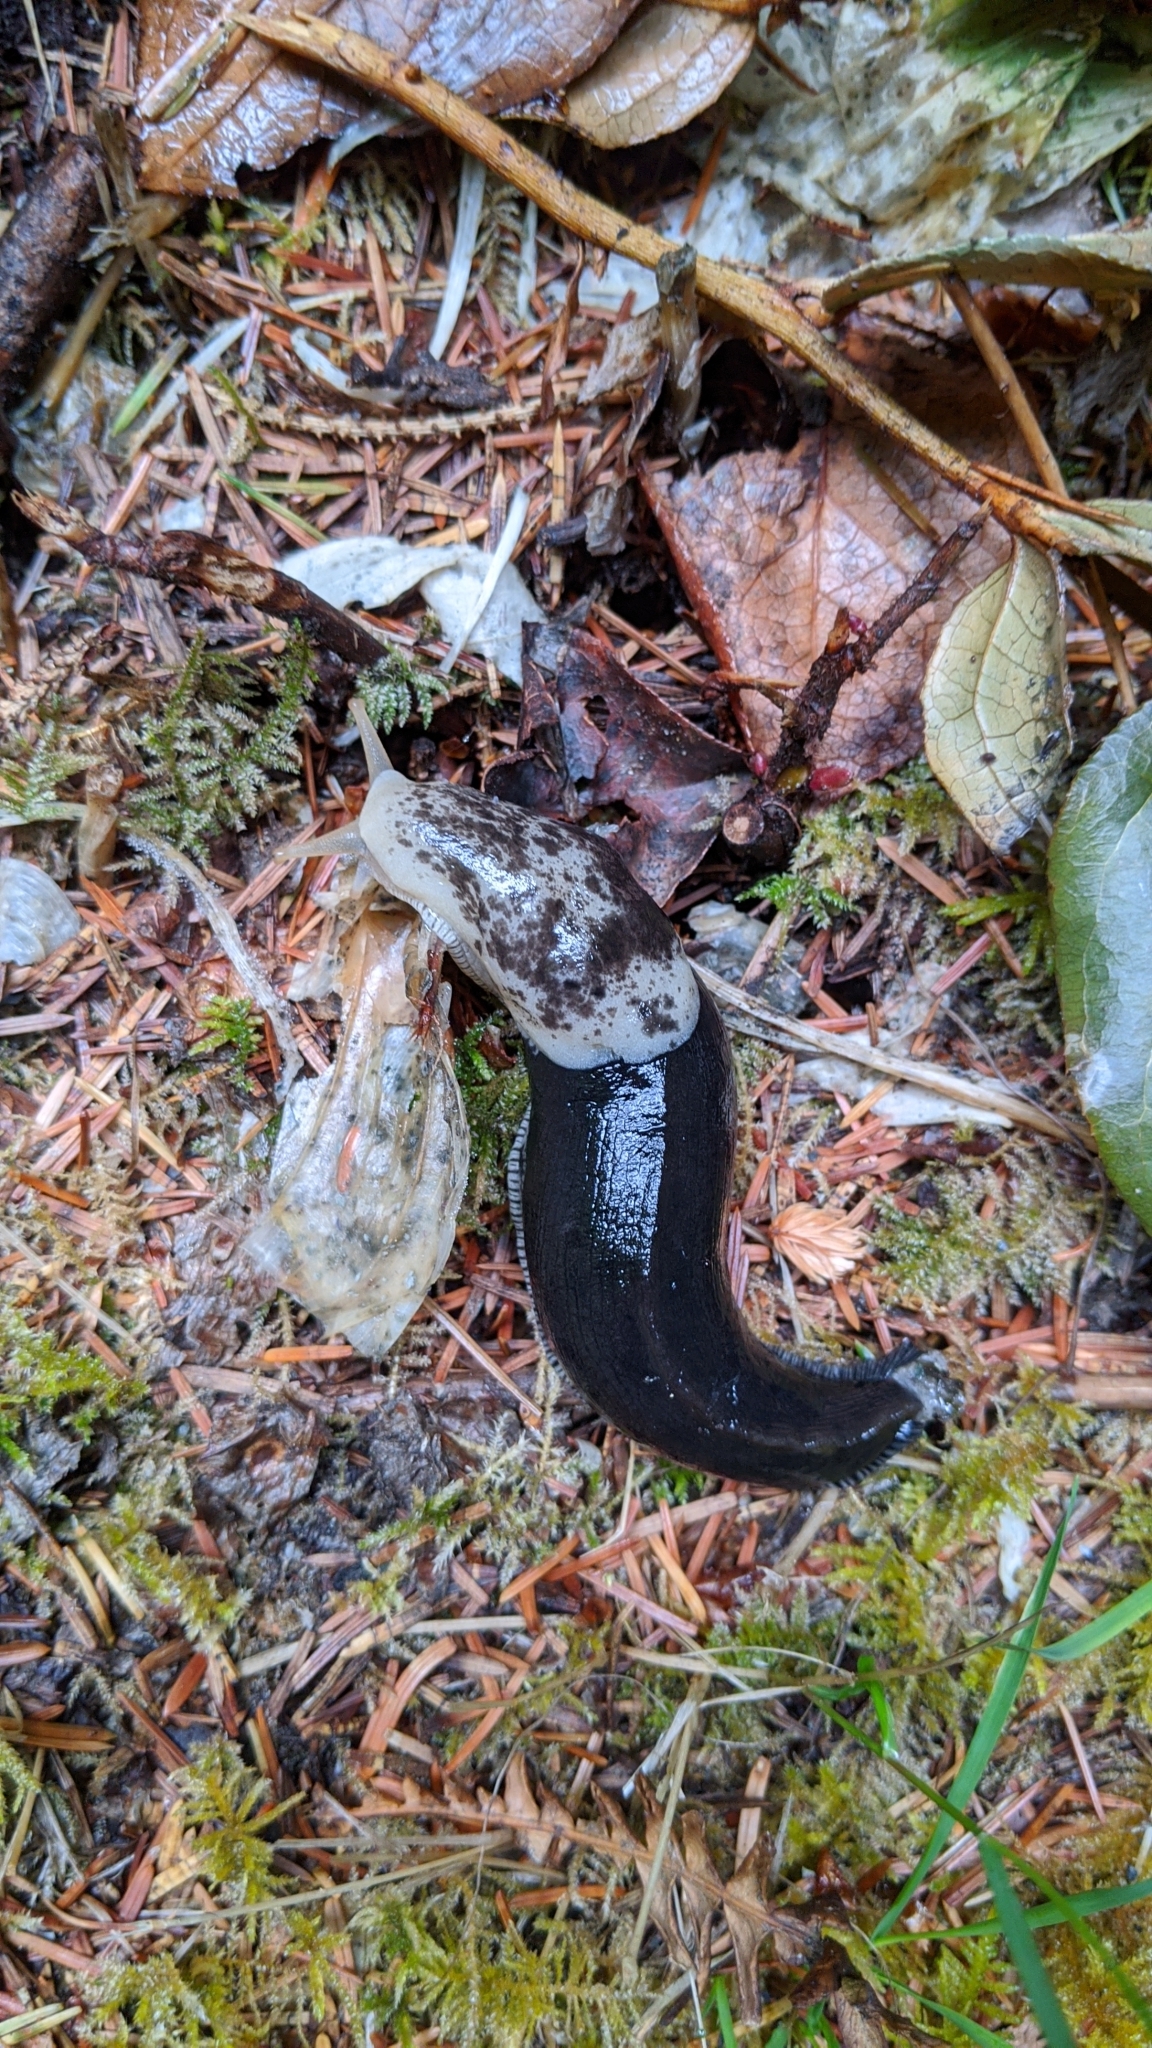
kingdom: Animalia
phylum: Mollusca
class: Gastropoda
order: Stylommatophora
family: Ariolimacidae
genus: Ariolimax
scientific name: Ariolimax columbianus
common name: Pacific banana slug
